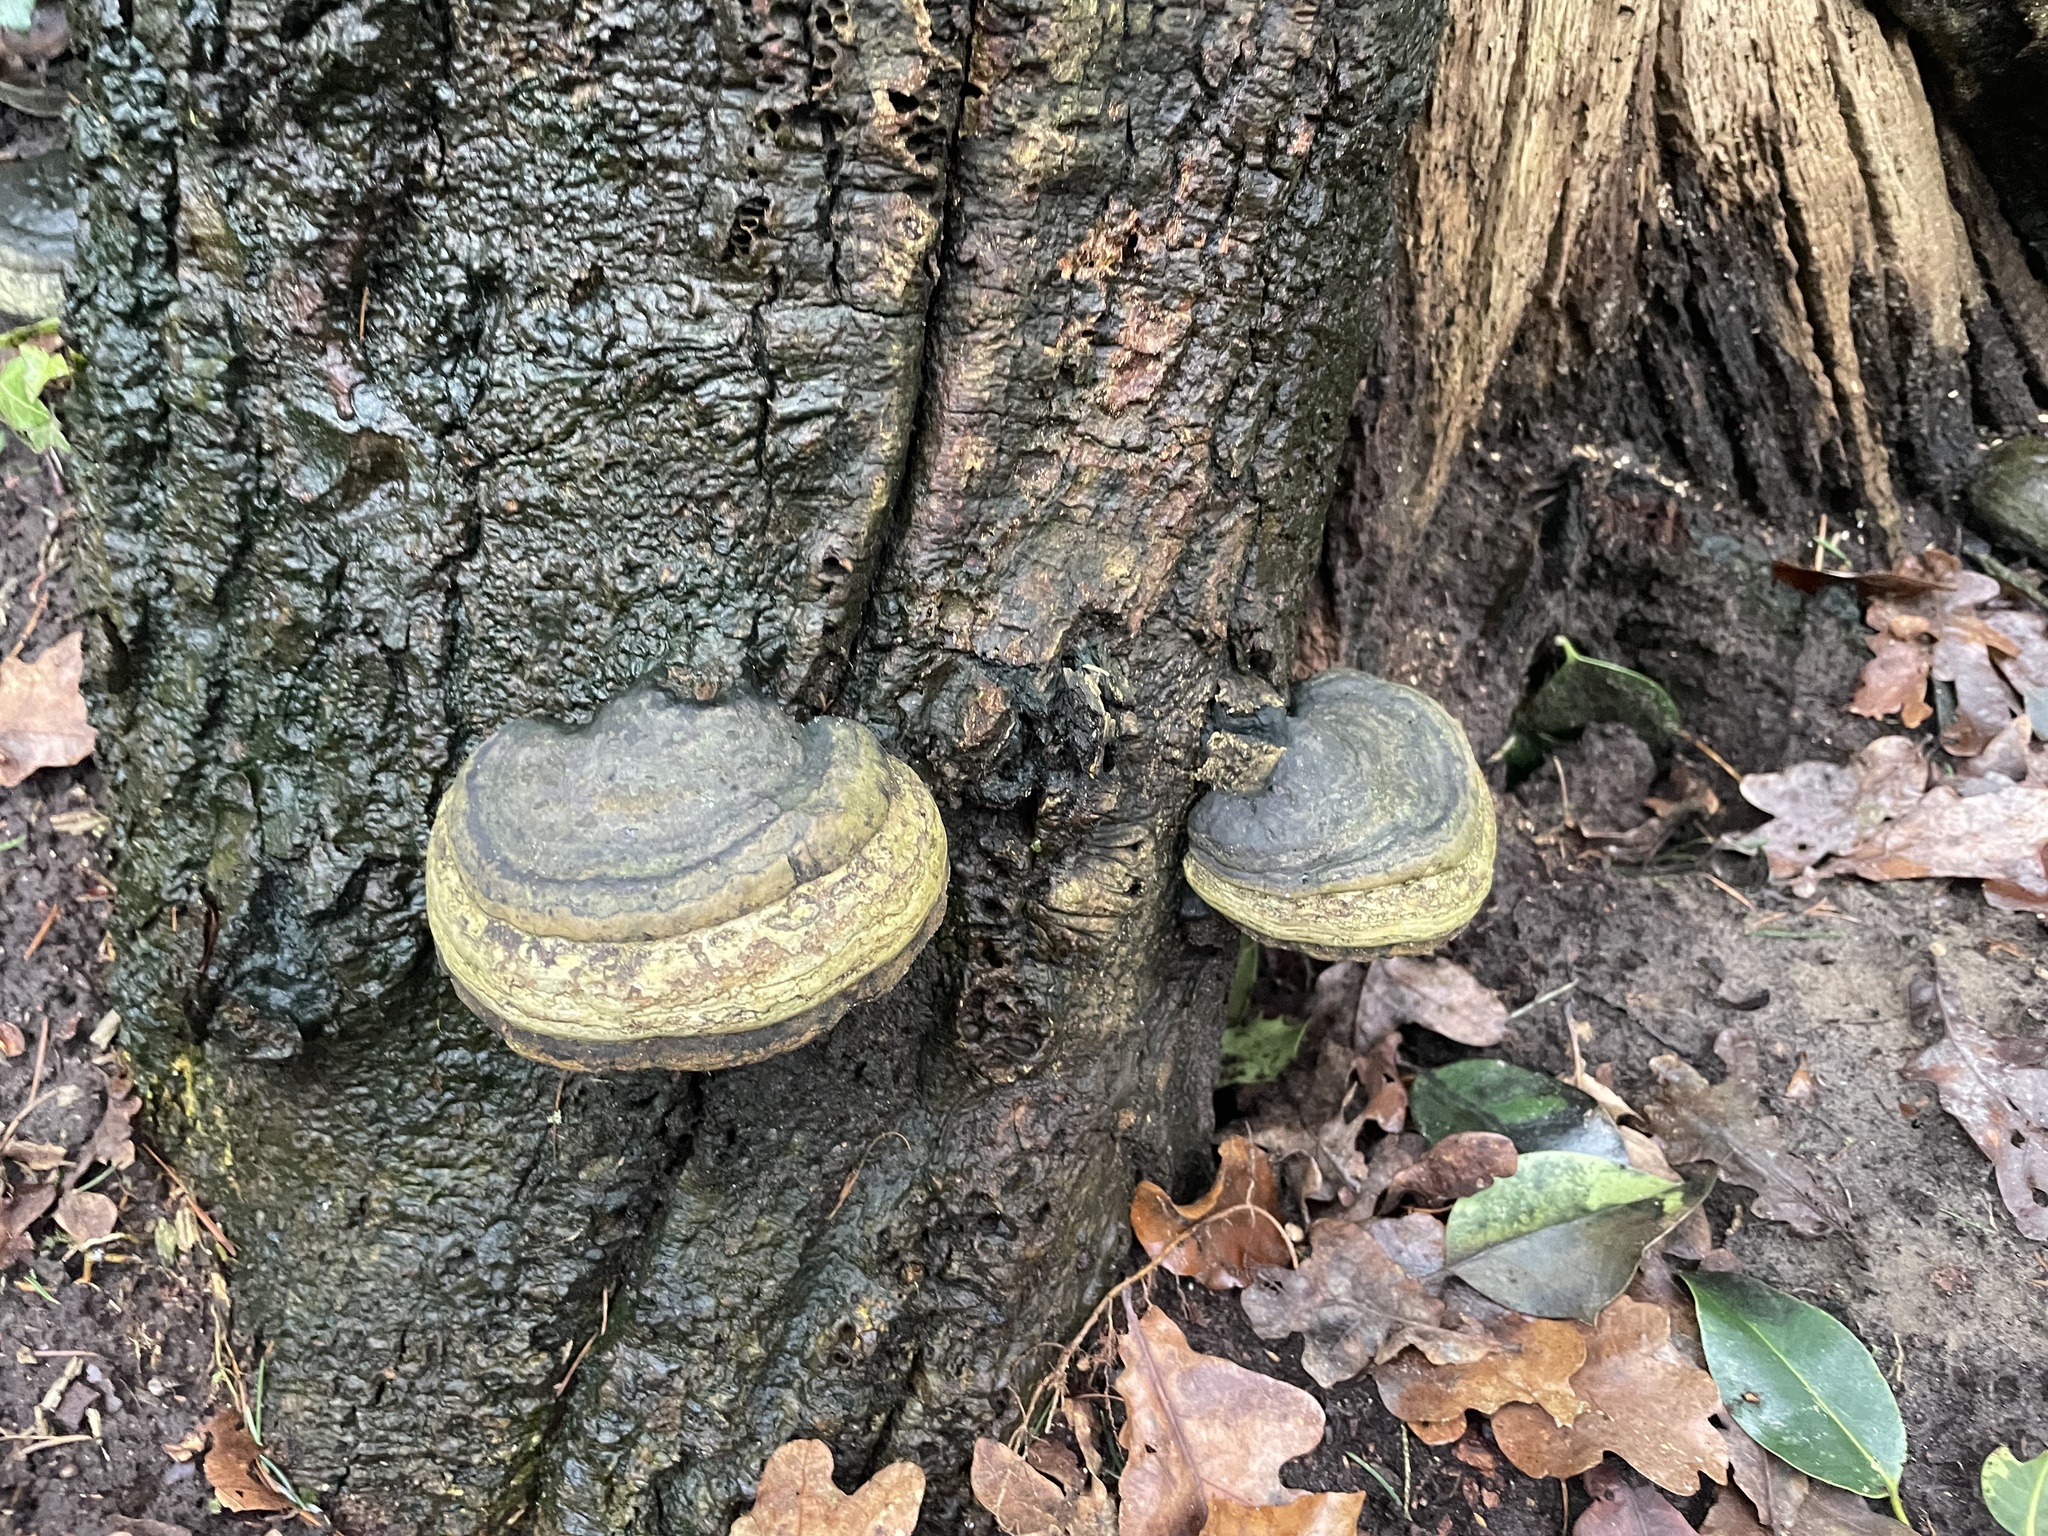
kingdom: Fungi
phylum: Basidiomycota
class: Agaricomycetes
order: Polyporales
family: Polyporaceae
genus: Fomes
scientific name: Fomes fomentarius
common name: Hoof fungus
